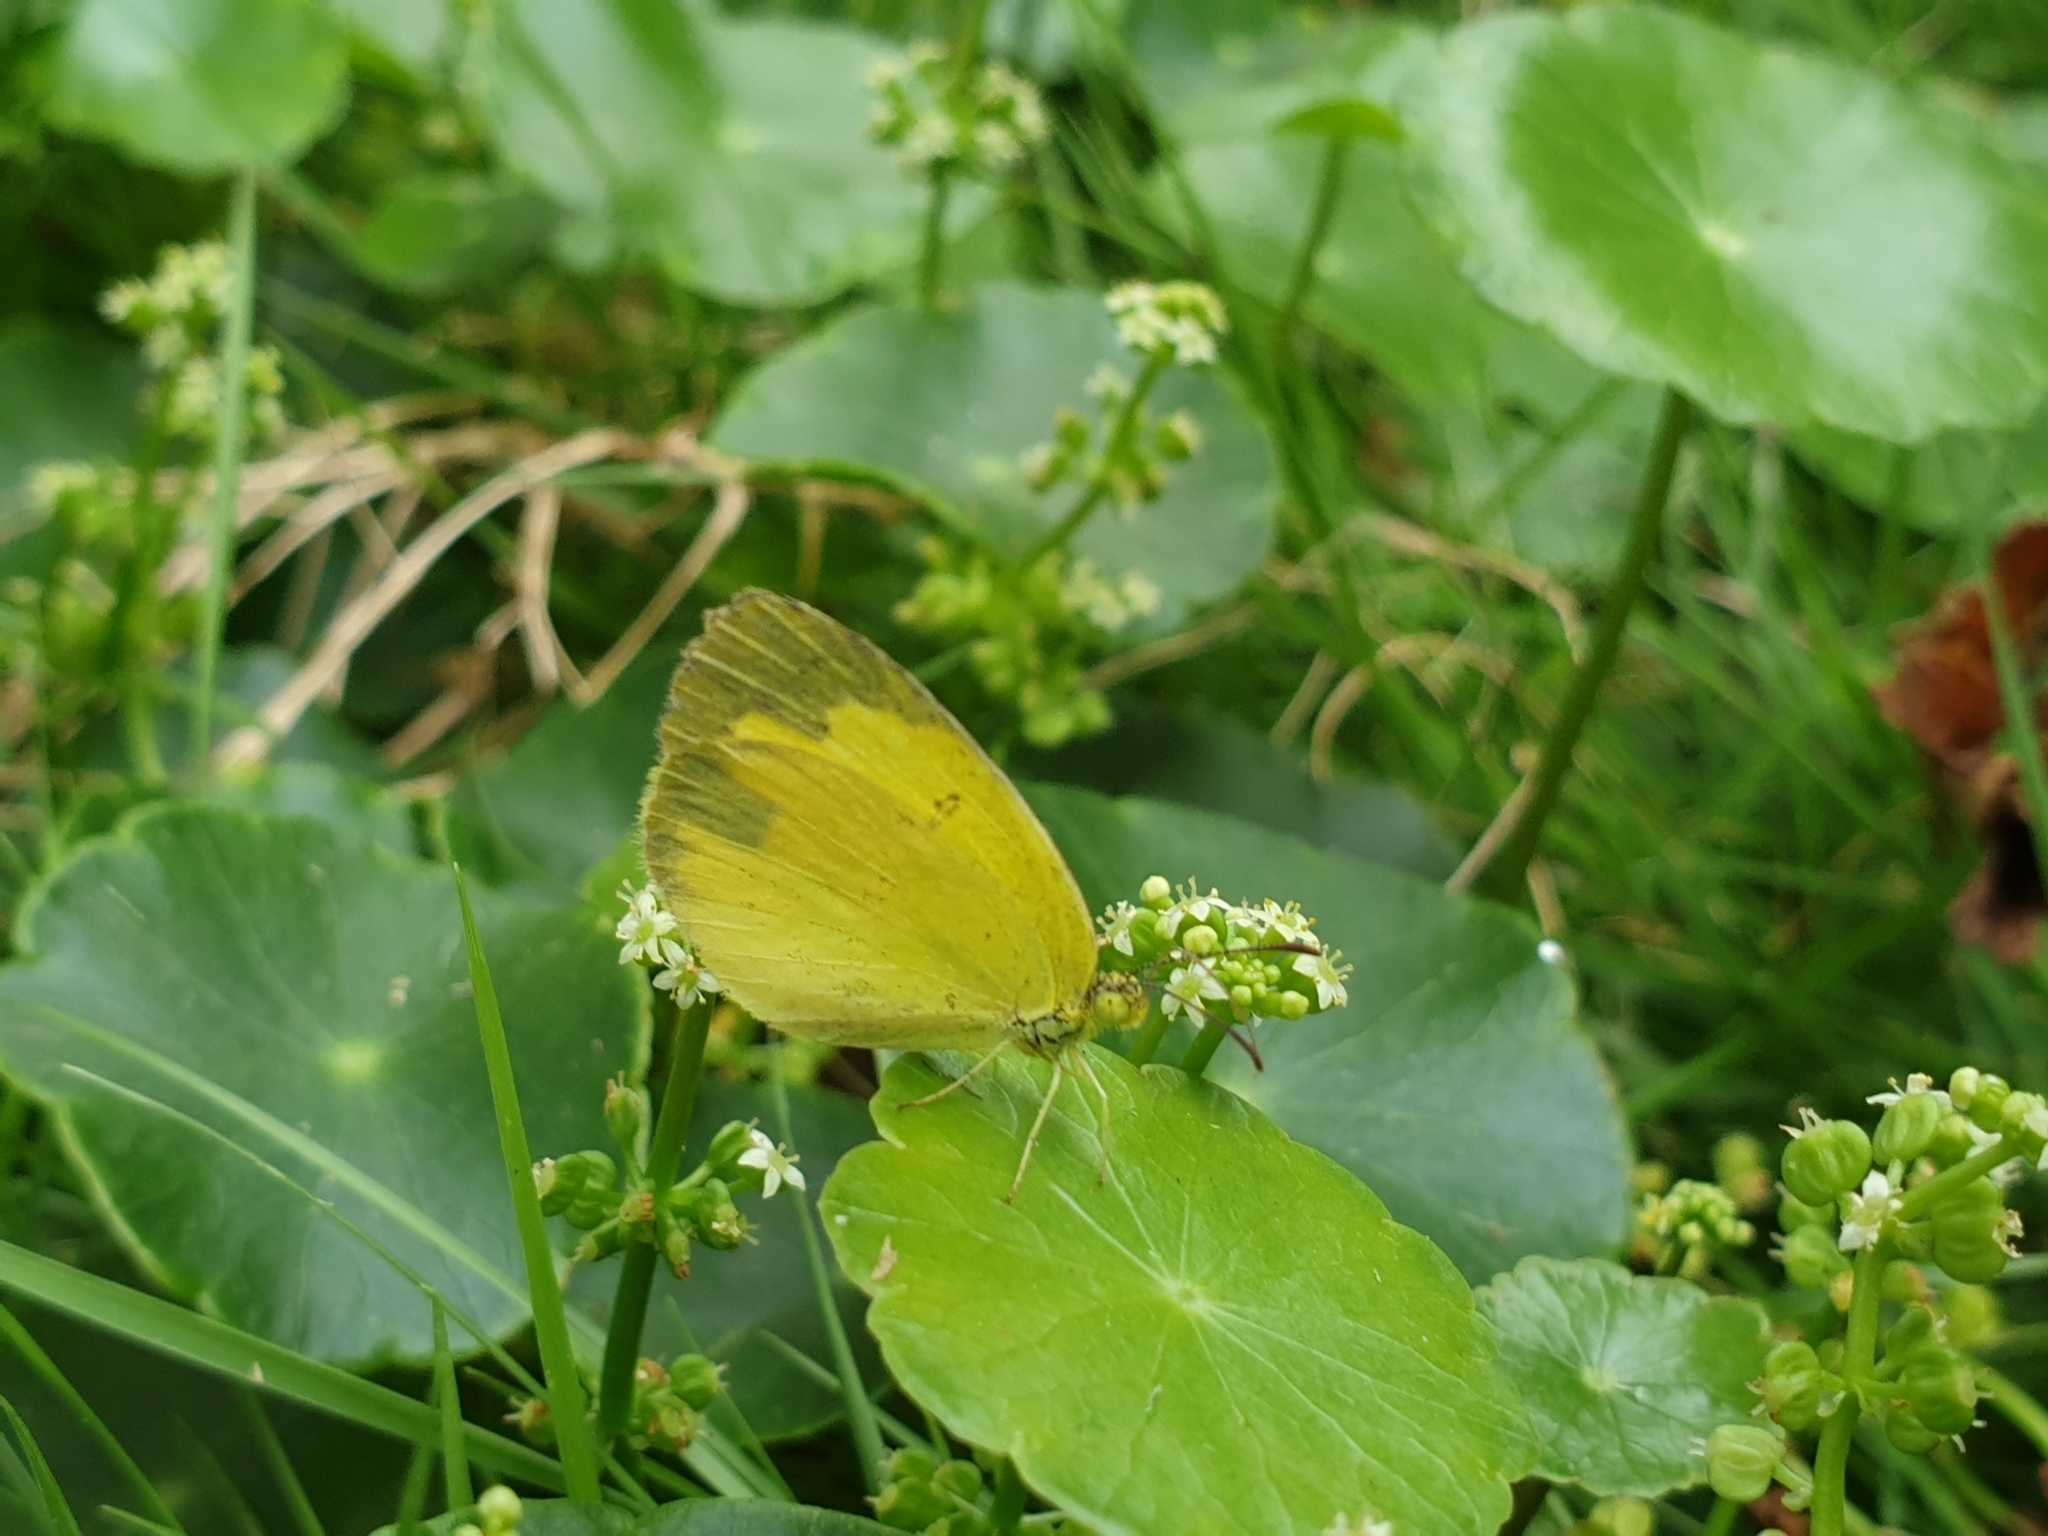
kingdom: Animalia
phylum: Arthropoda
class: Insecta
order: Lepidoptera
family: Pieridae
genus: Eurema
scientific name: Eurema hecabe
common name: Pale grass yellow
